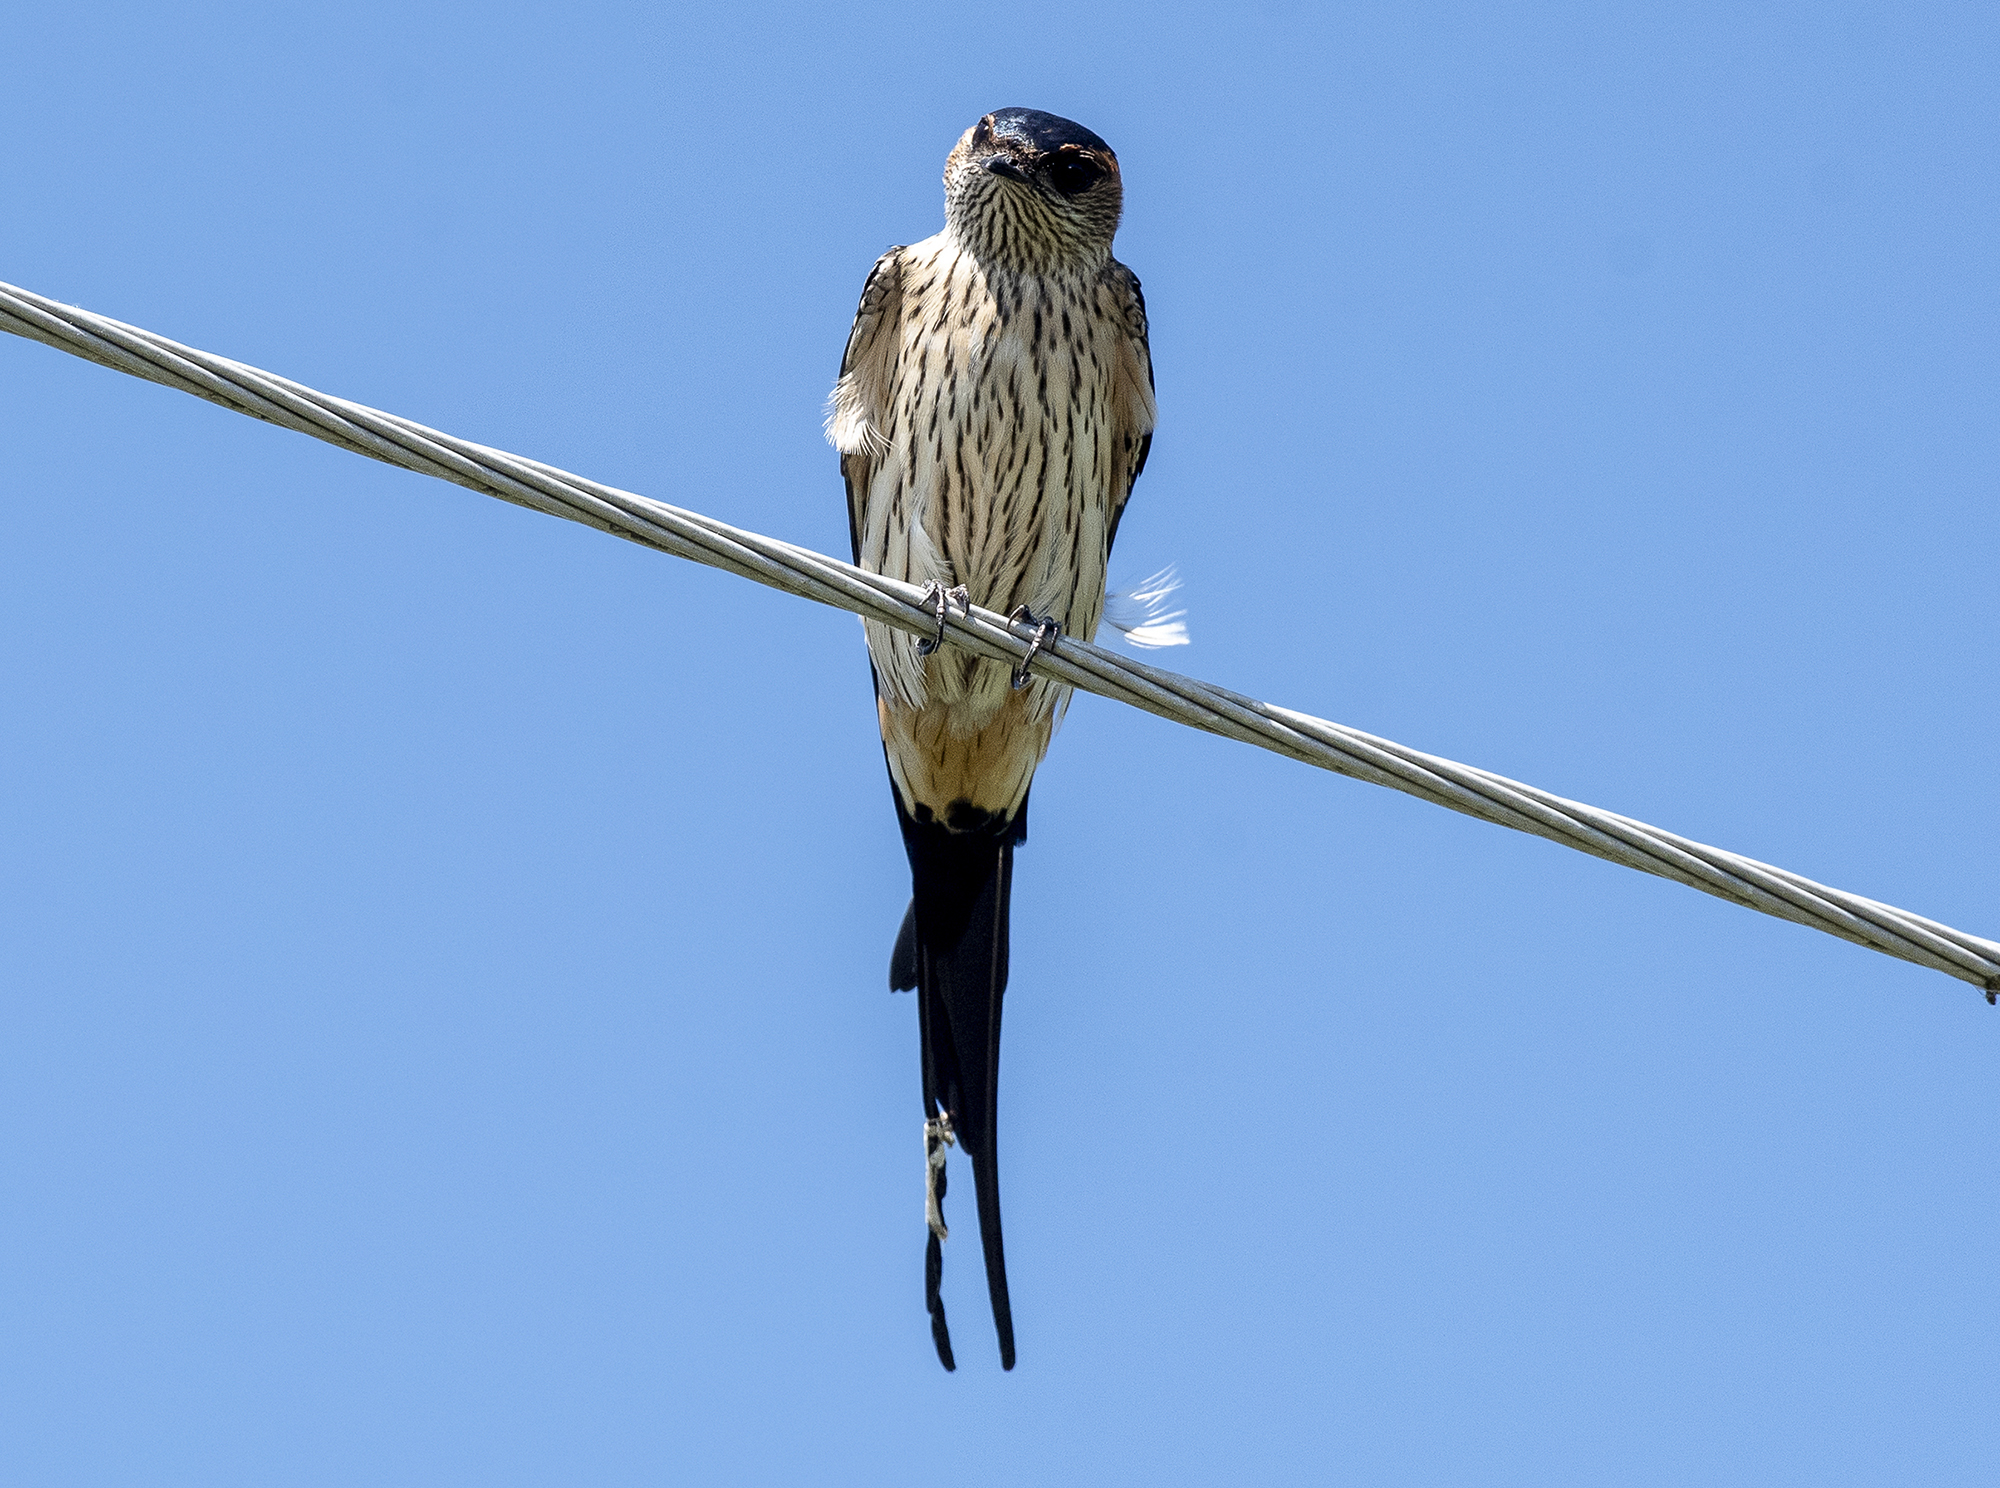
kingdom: Animalia
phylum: Chordata
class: Aves
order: Passeriformes
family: Hirundinidae
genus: Cecropis
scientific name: Cecropis daurica
